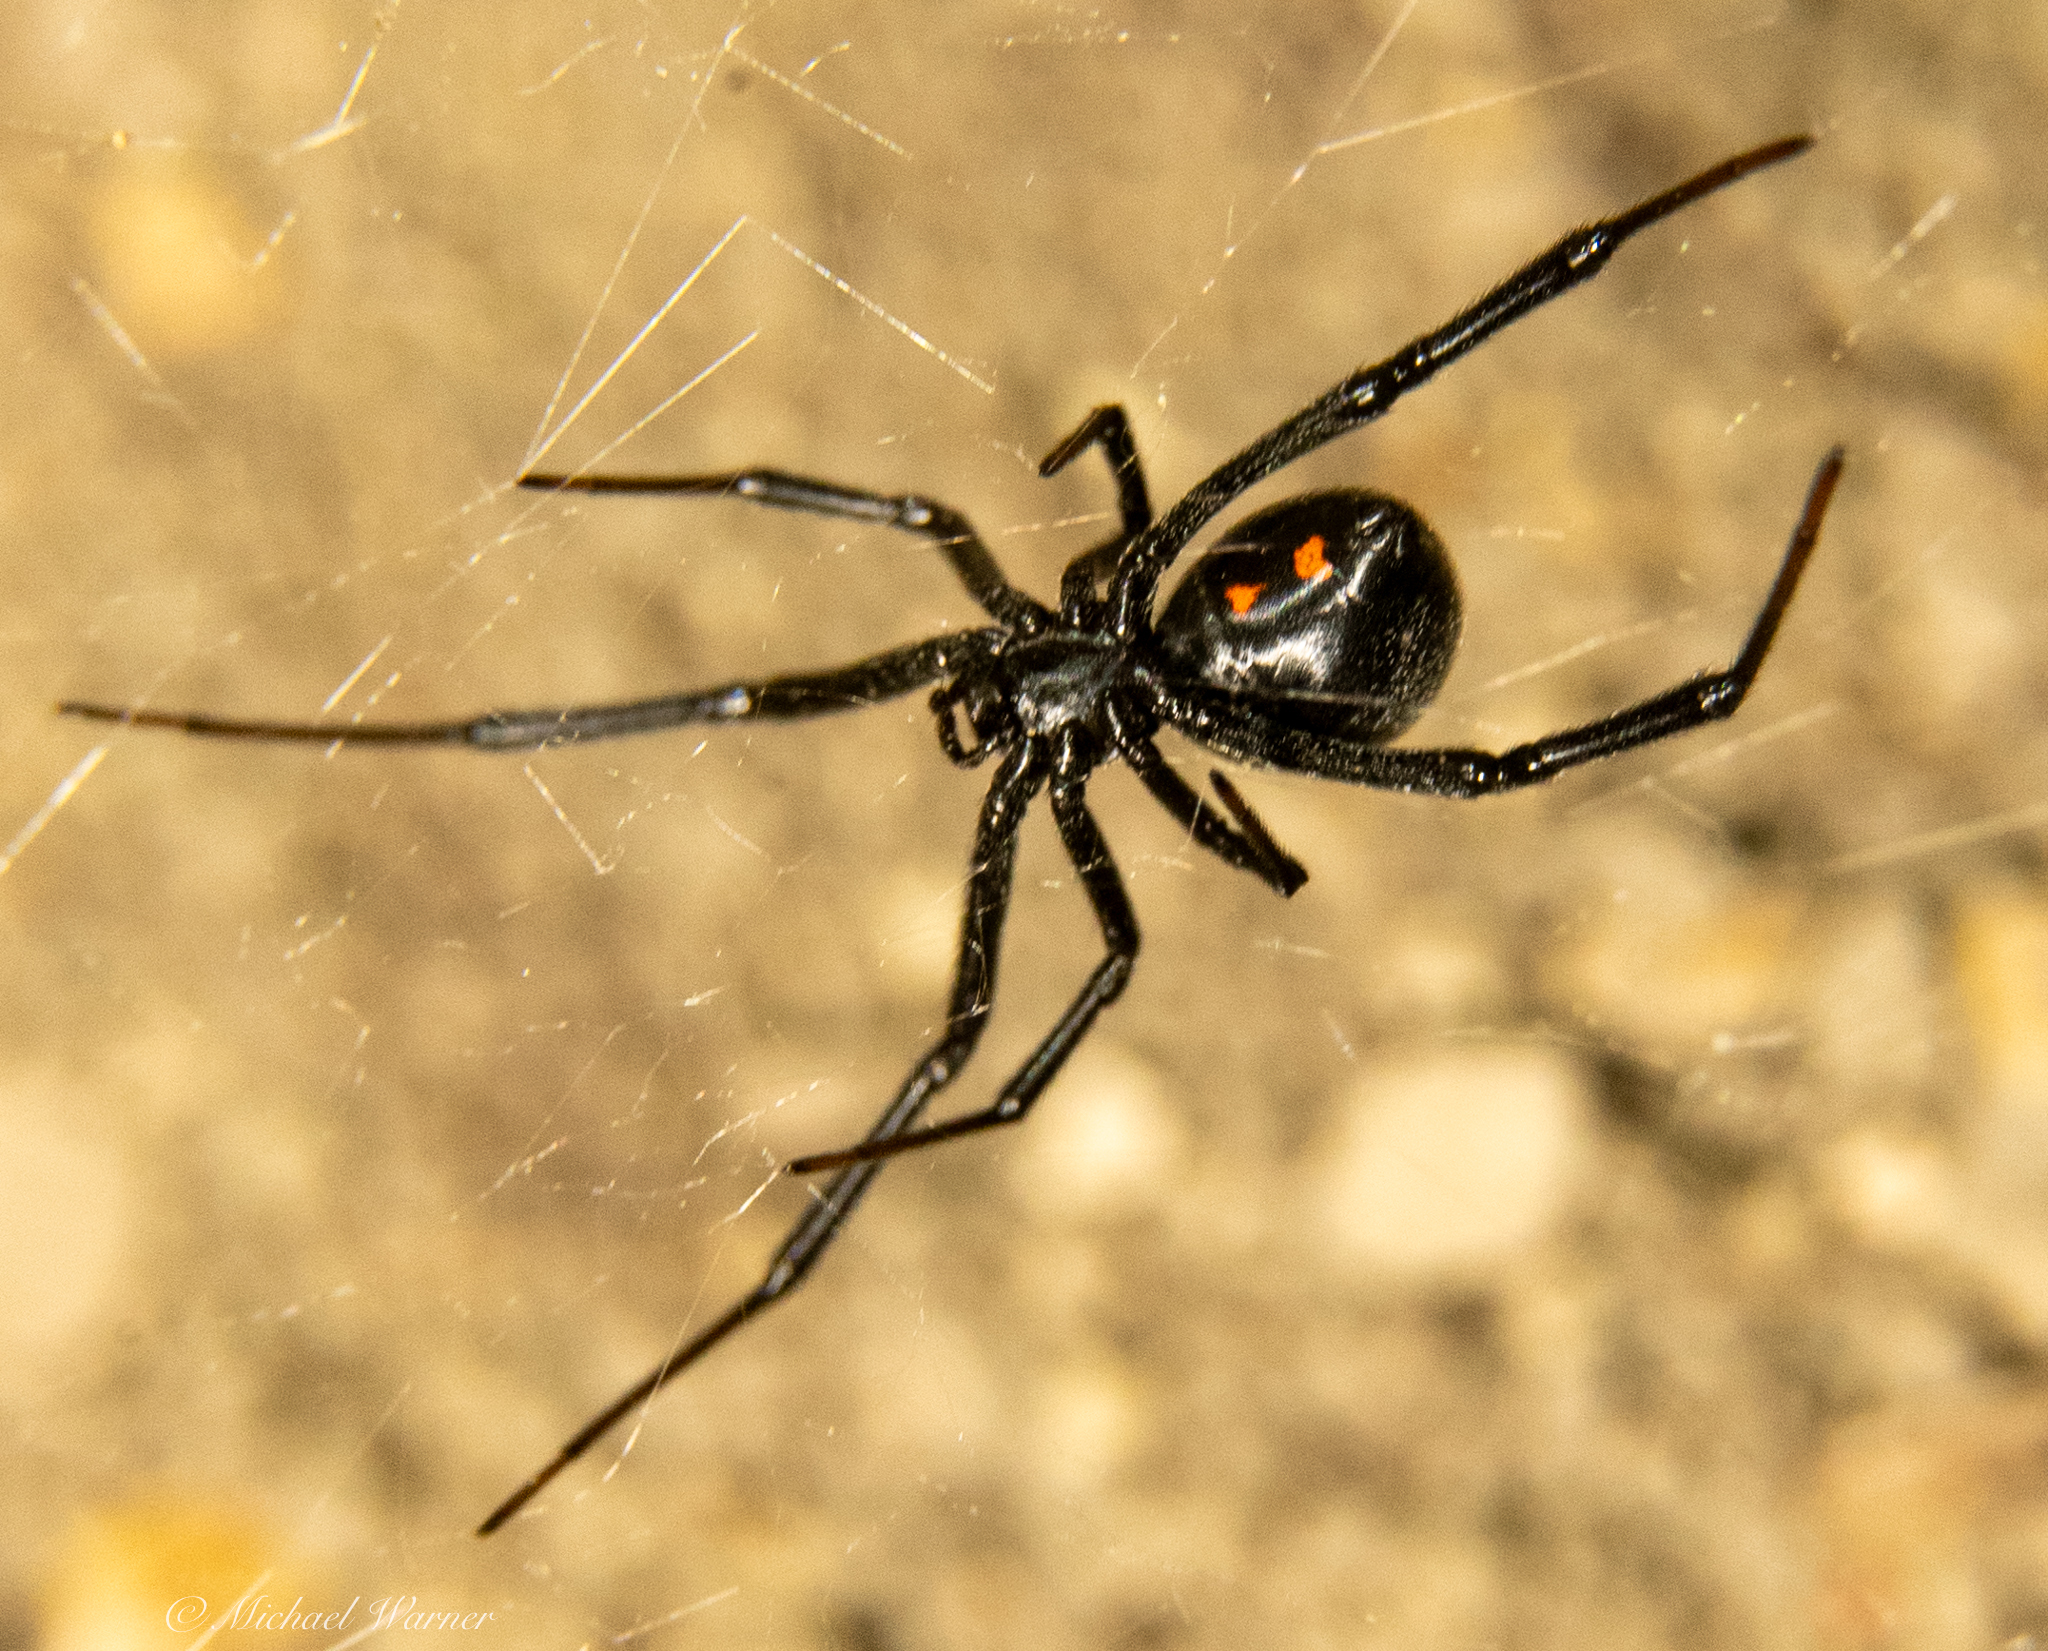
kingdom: Animalia
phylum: Arthropoda
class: Arachnida
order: Araneae
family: Theridiidae
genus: Latrodectus
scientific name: Latrodectus hesperus
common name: Western black widow
